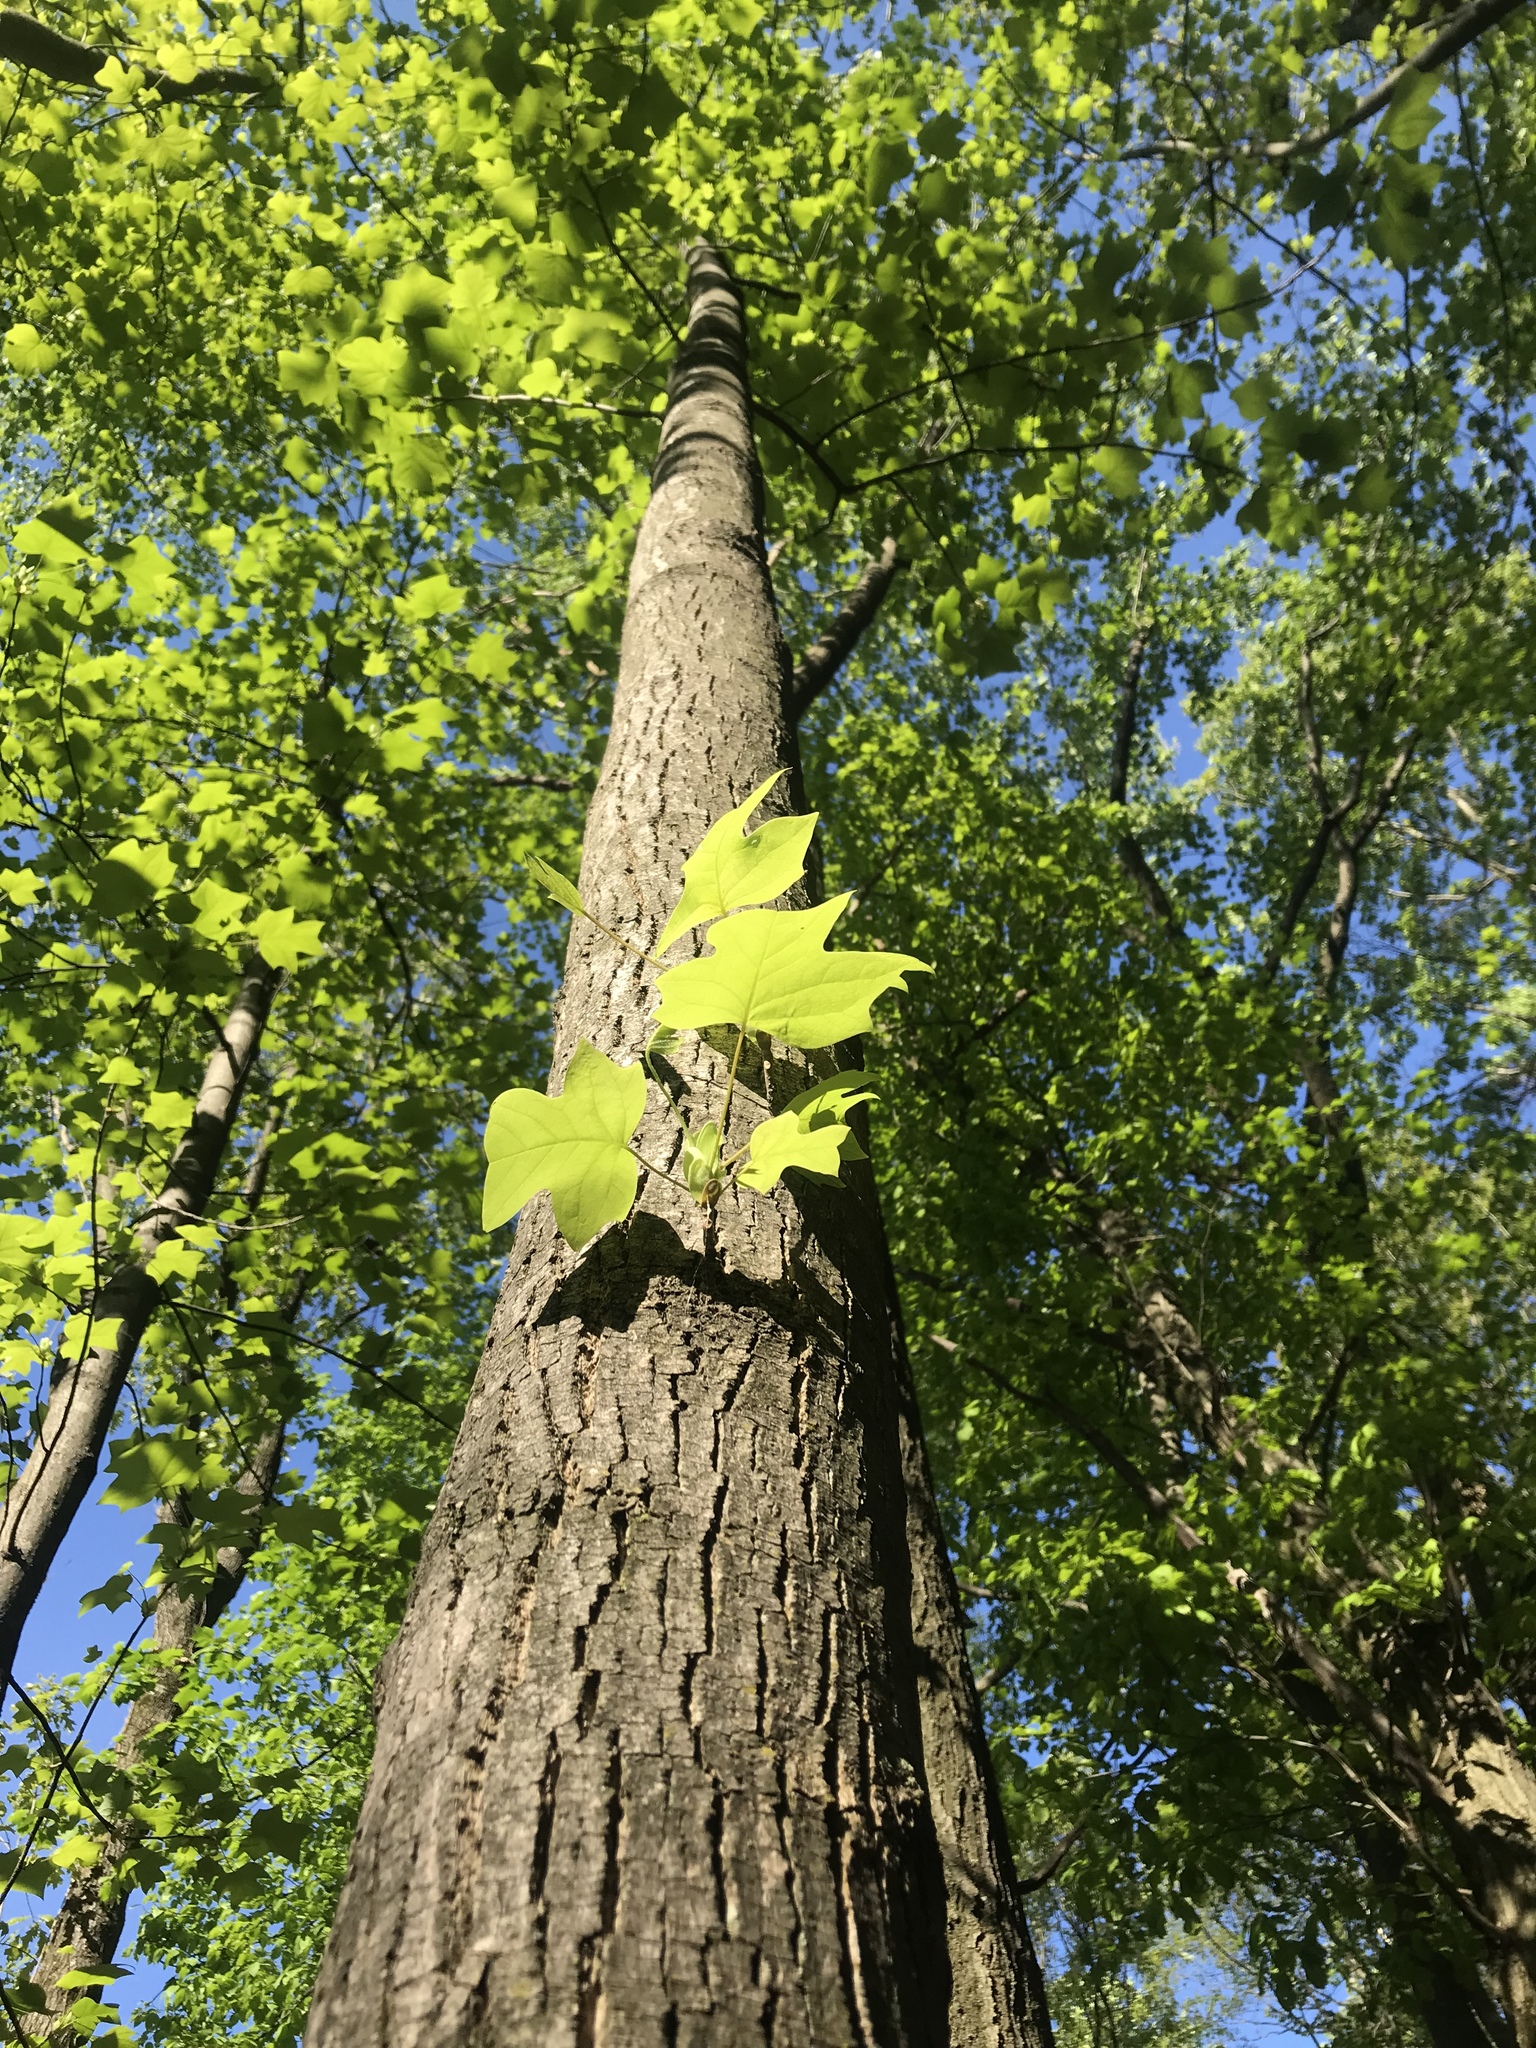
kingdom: Plantae
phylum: Tracheophyta
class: Magnoliopsida
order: Magnoliales
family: Magnoliaceae
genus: Liriodendron
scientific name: Liriodendron tulipifera
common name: Tulip tree
